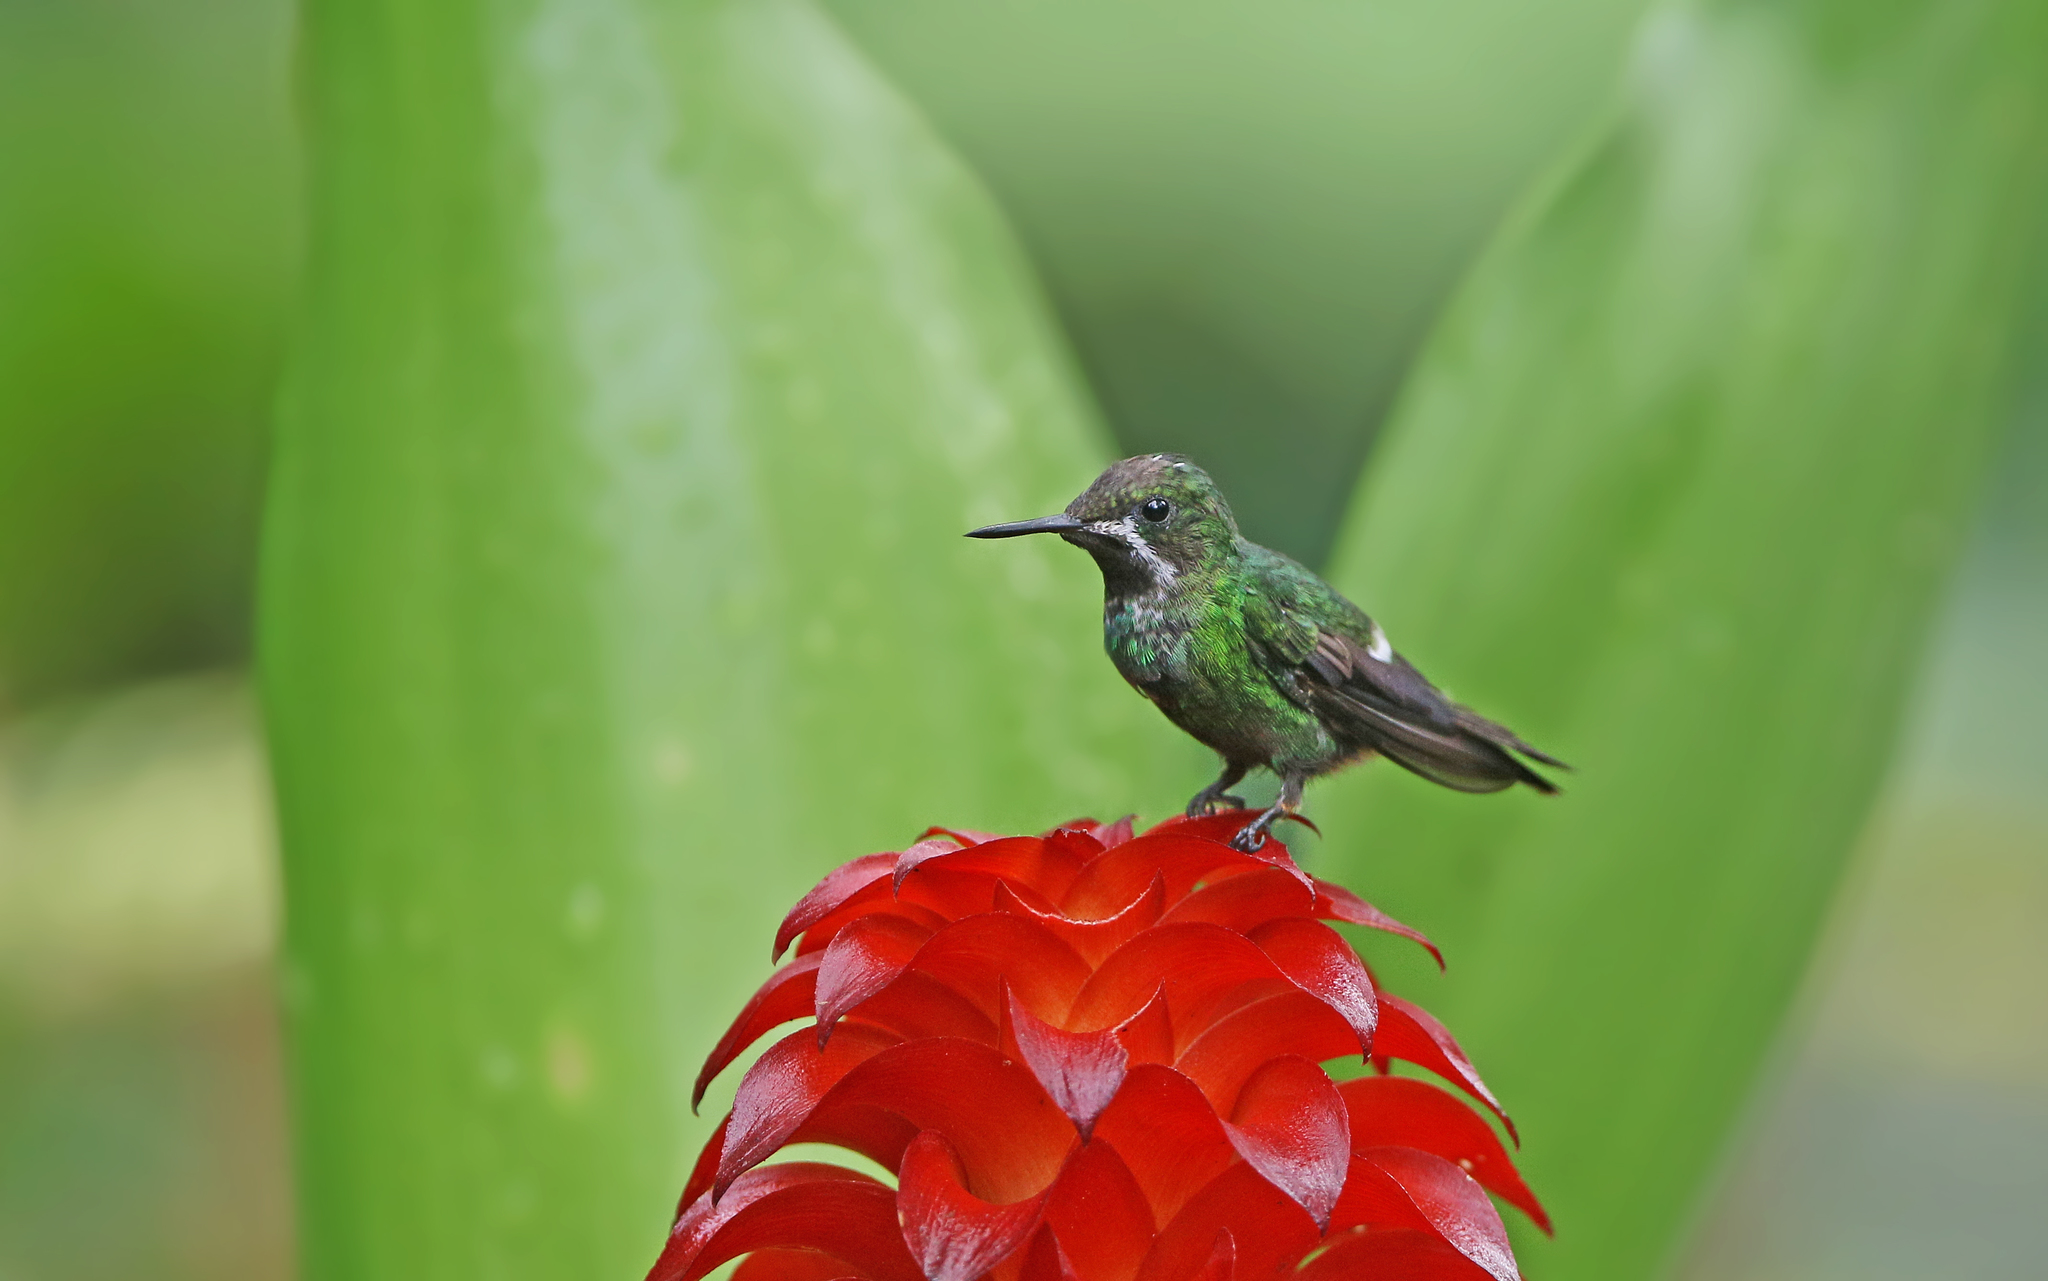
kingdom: Animalia
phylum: Chordata
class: Aves
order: Apodiformes
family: Trochilidae
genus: Discosura
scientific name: Discosura conversii
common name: Green thorntail
